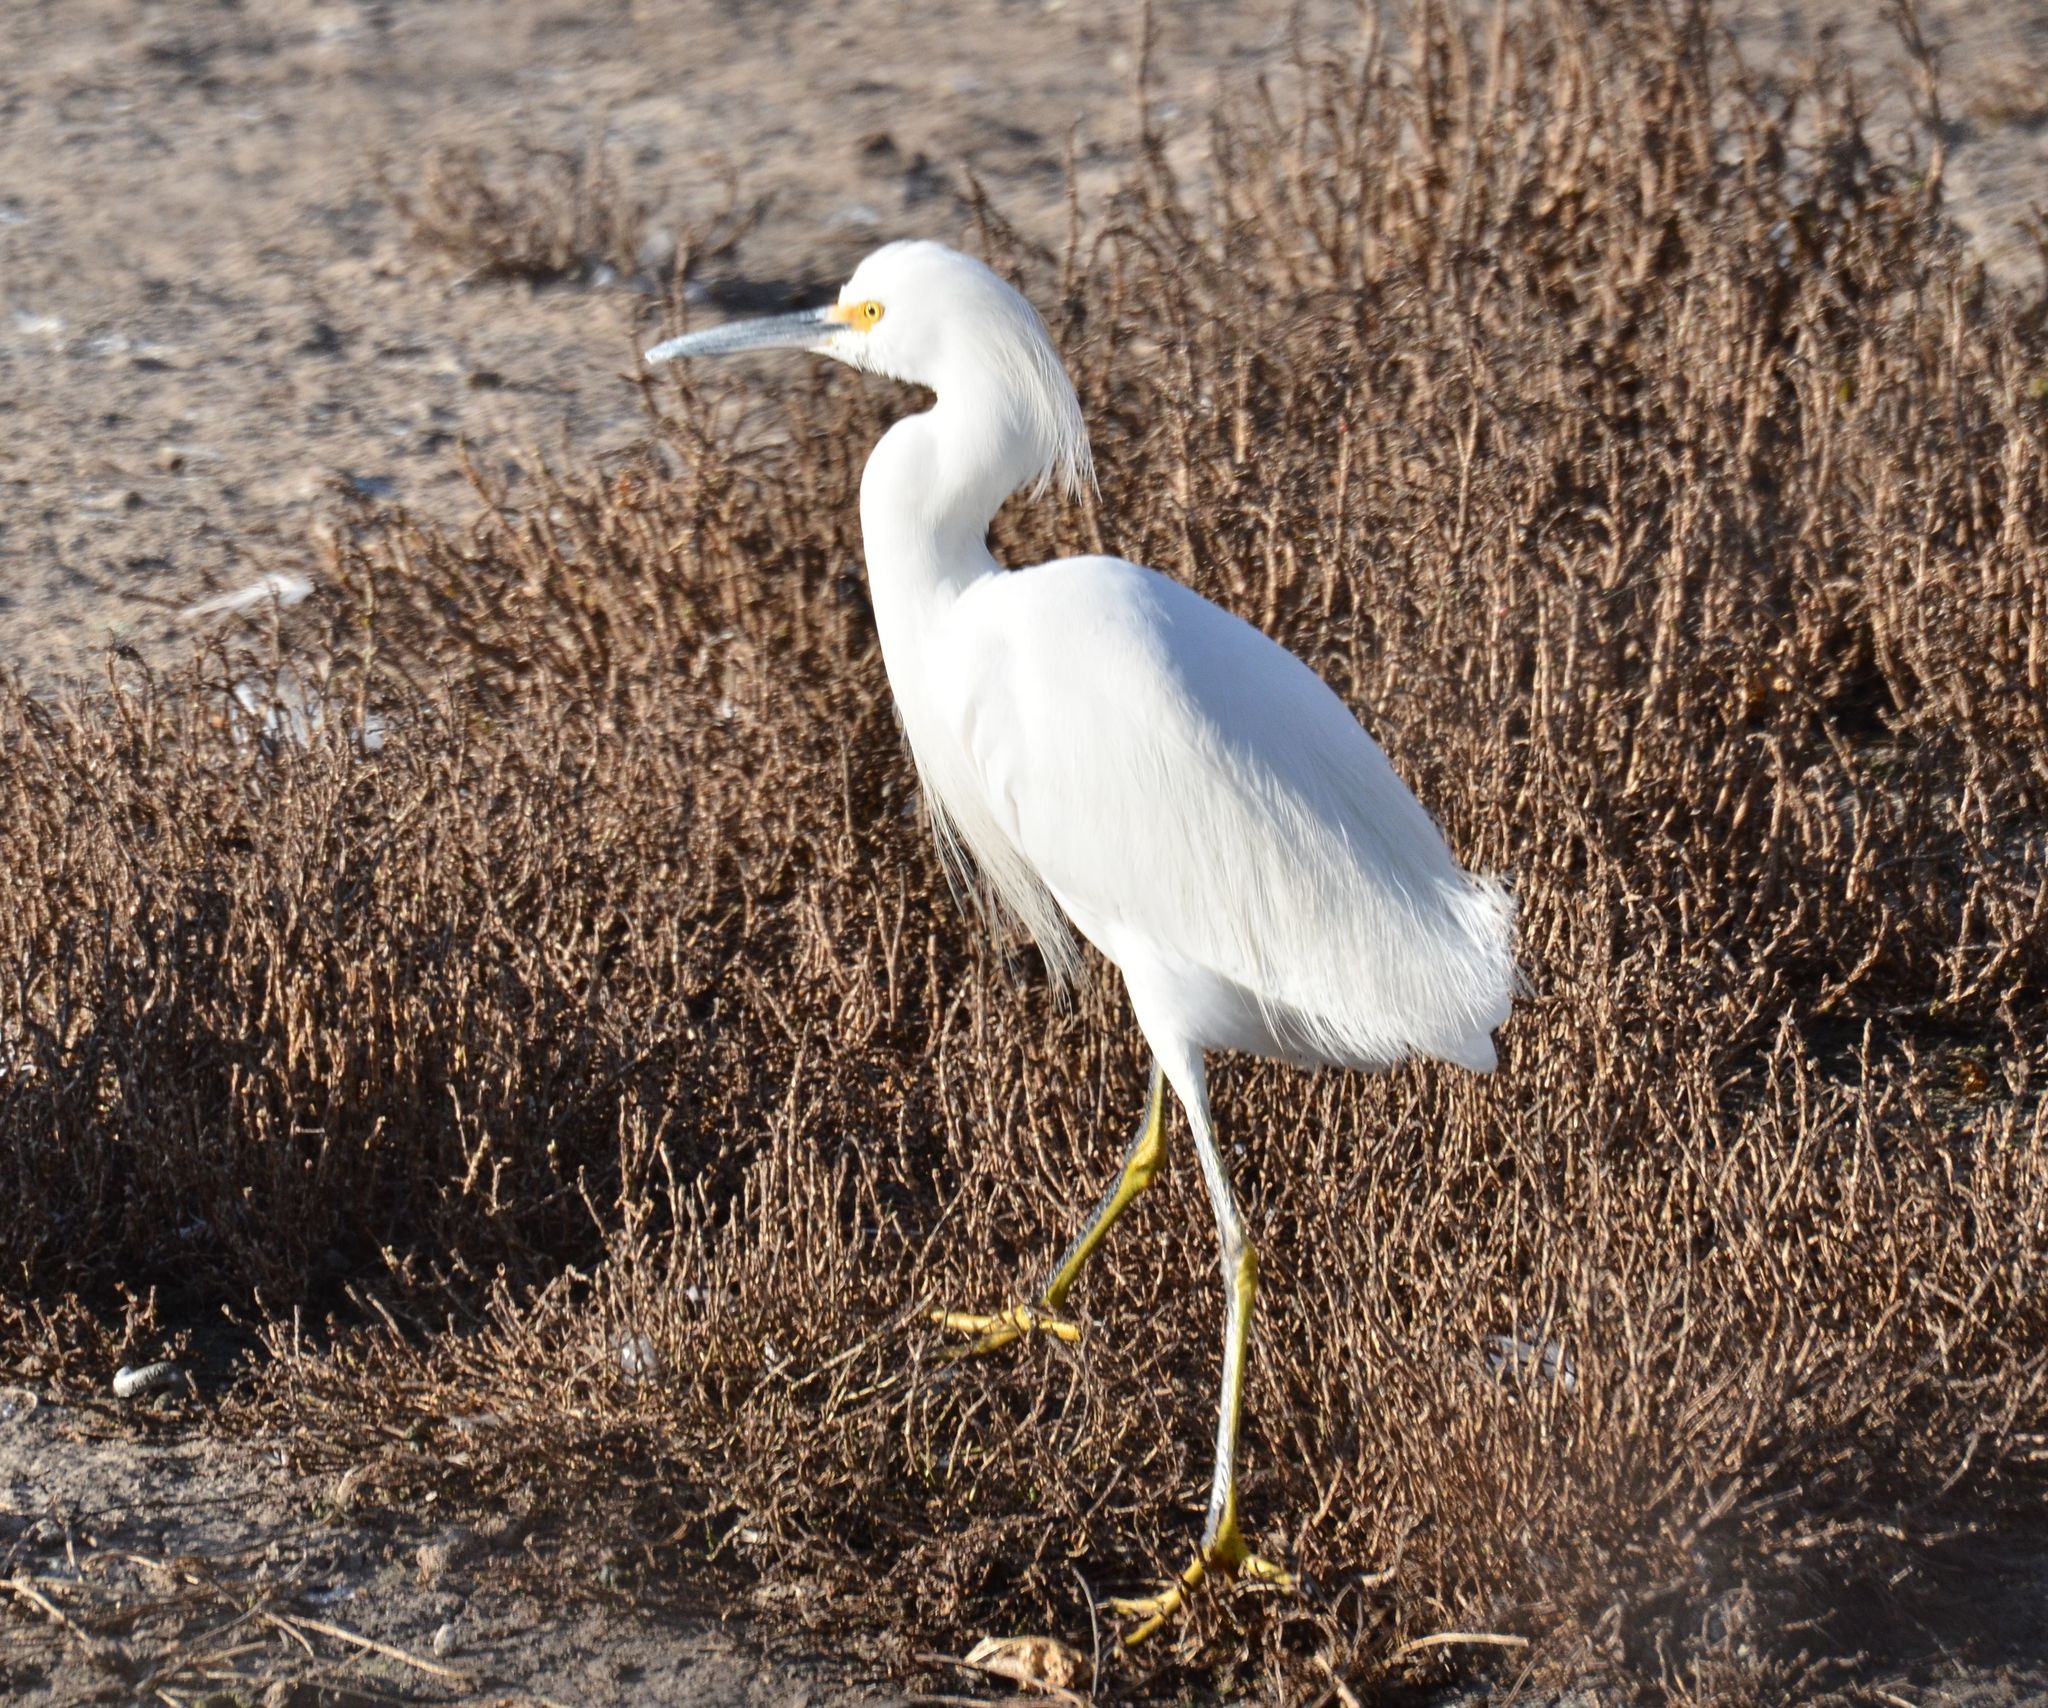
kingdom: Animalia
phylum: Chordata
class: Aves
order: Pelecaniformes
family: Ardeidae
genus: Egretta
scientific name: Egretta thula
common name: Snowy egret
